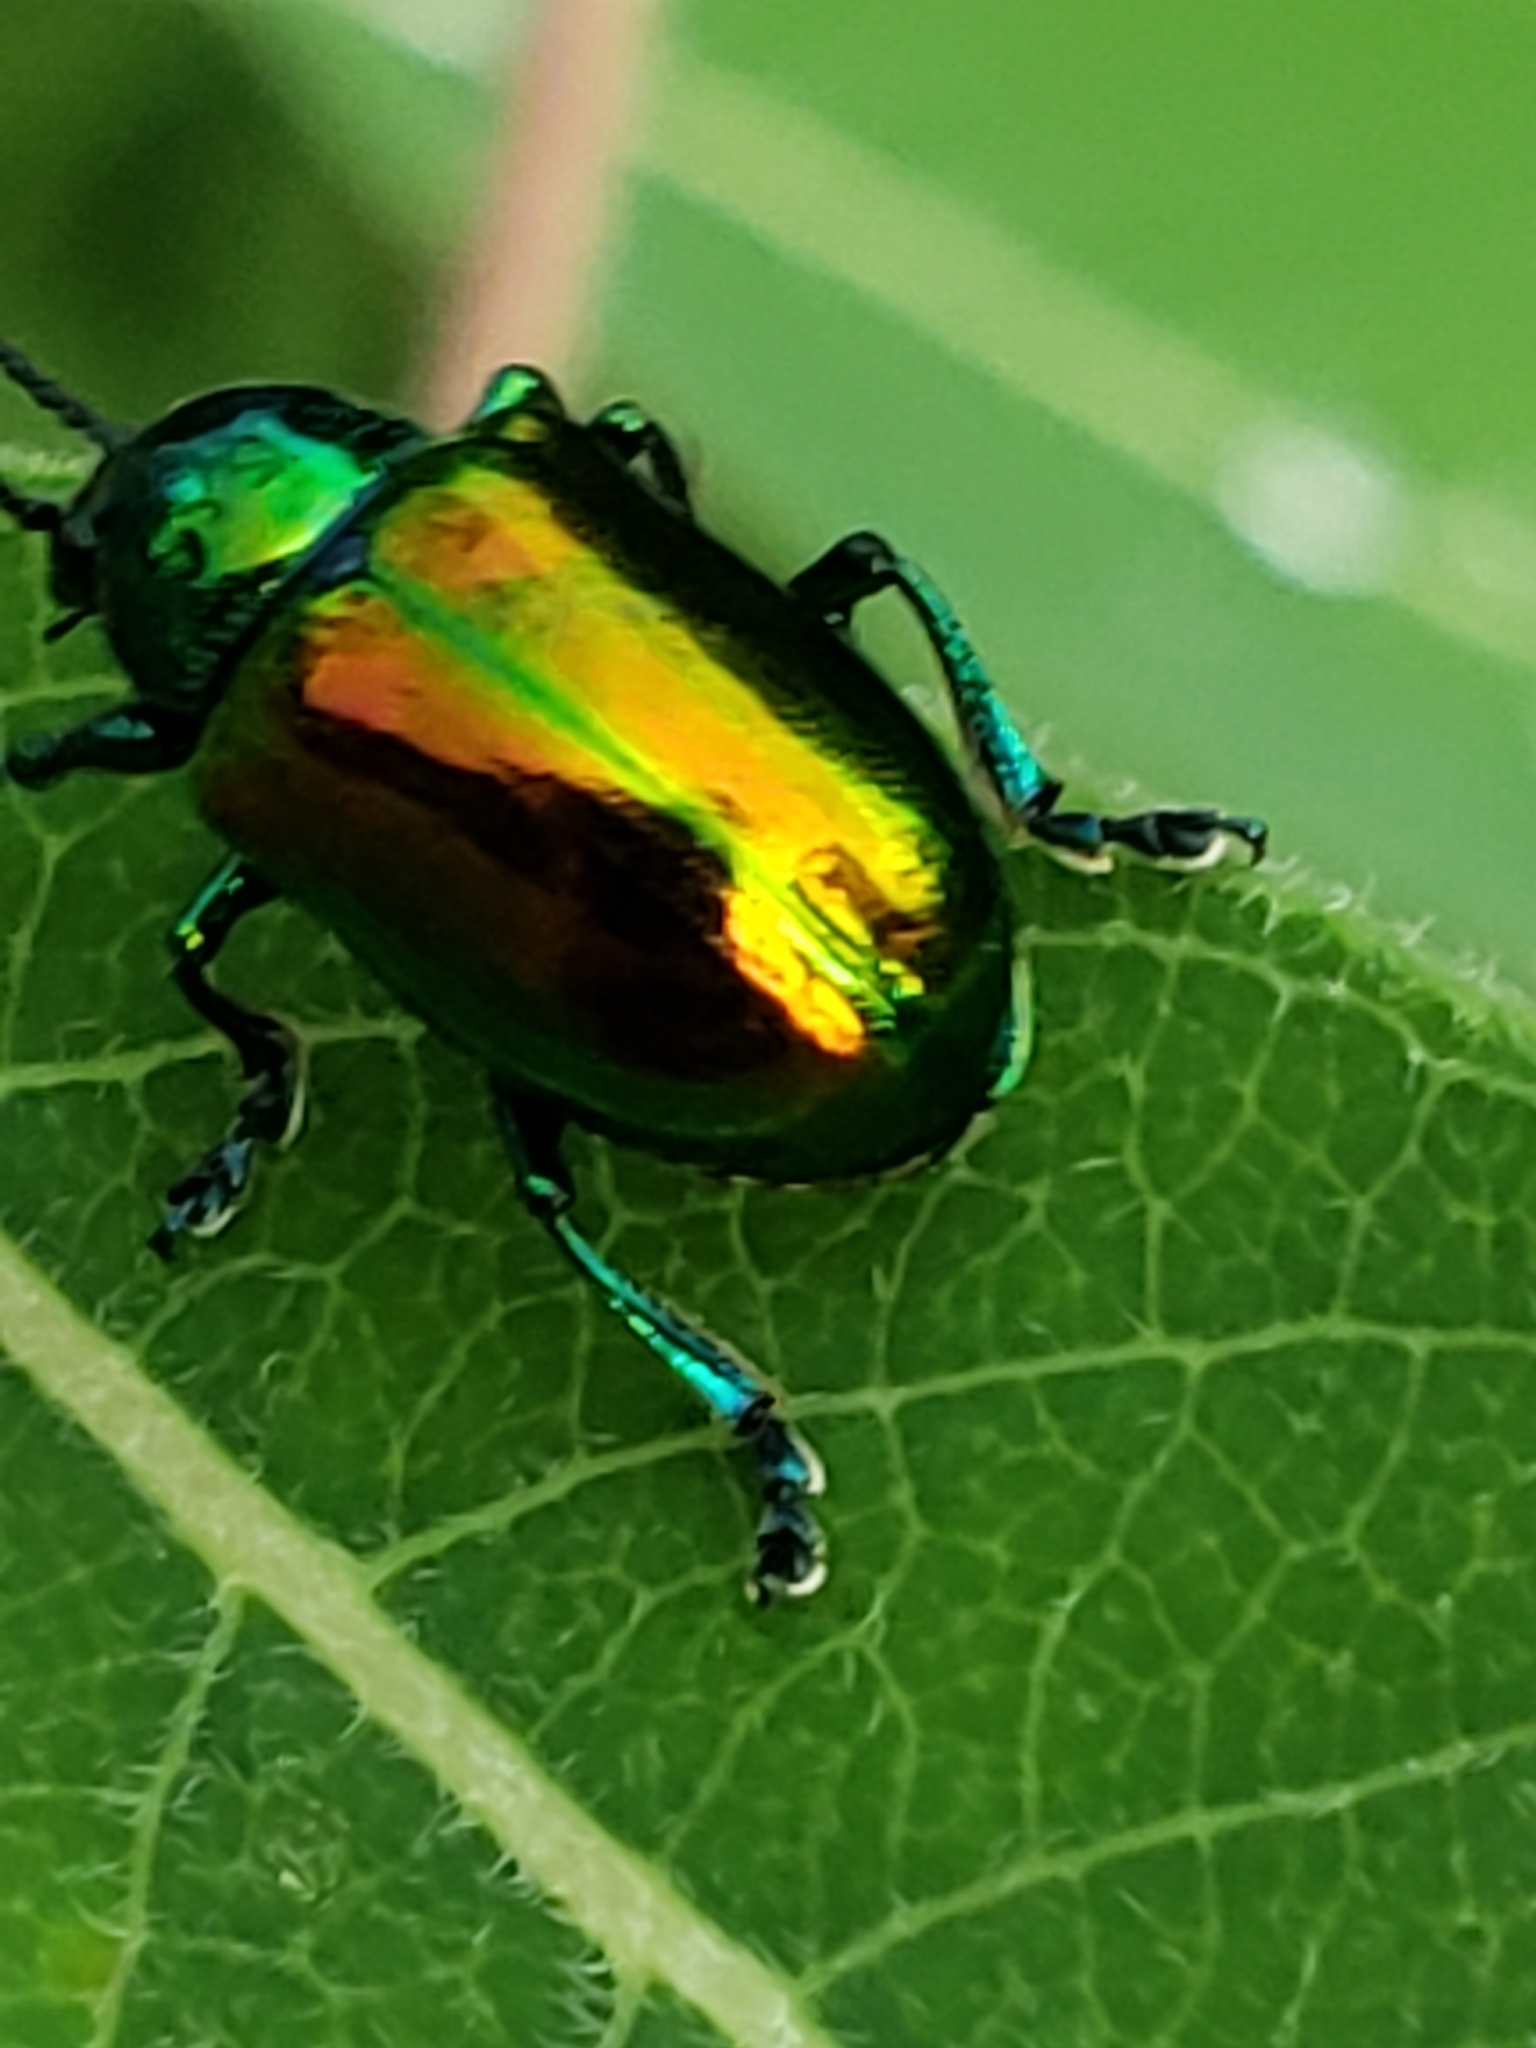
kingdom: Animalia
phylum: Arthropoda
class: Insecta
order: Coleoptera
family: Chrysomelidae
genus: Chrysochus
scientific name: Chrysochus auratus
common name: Dogbane leaf beetle
